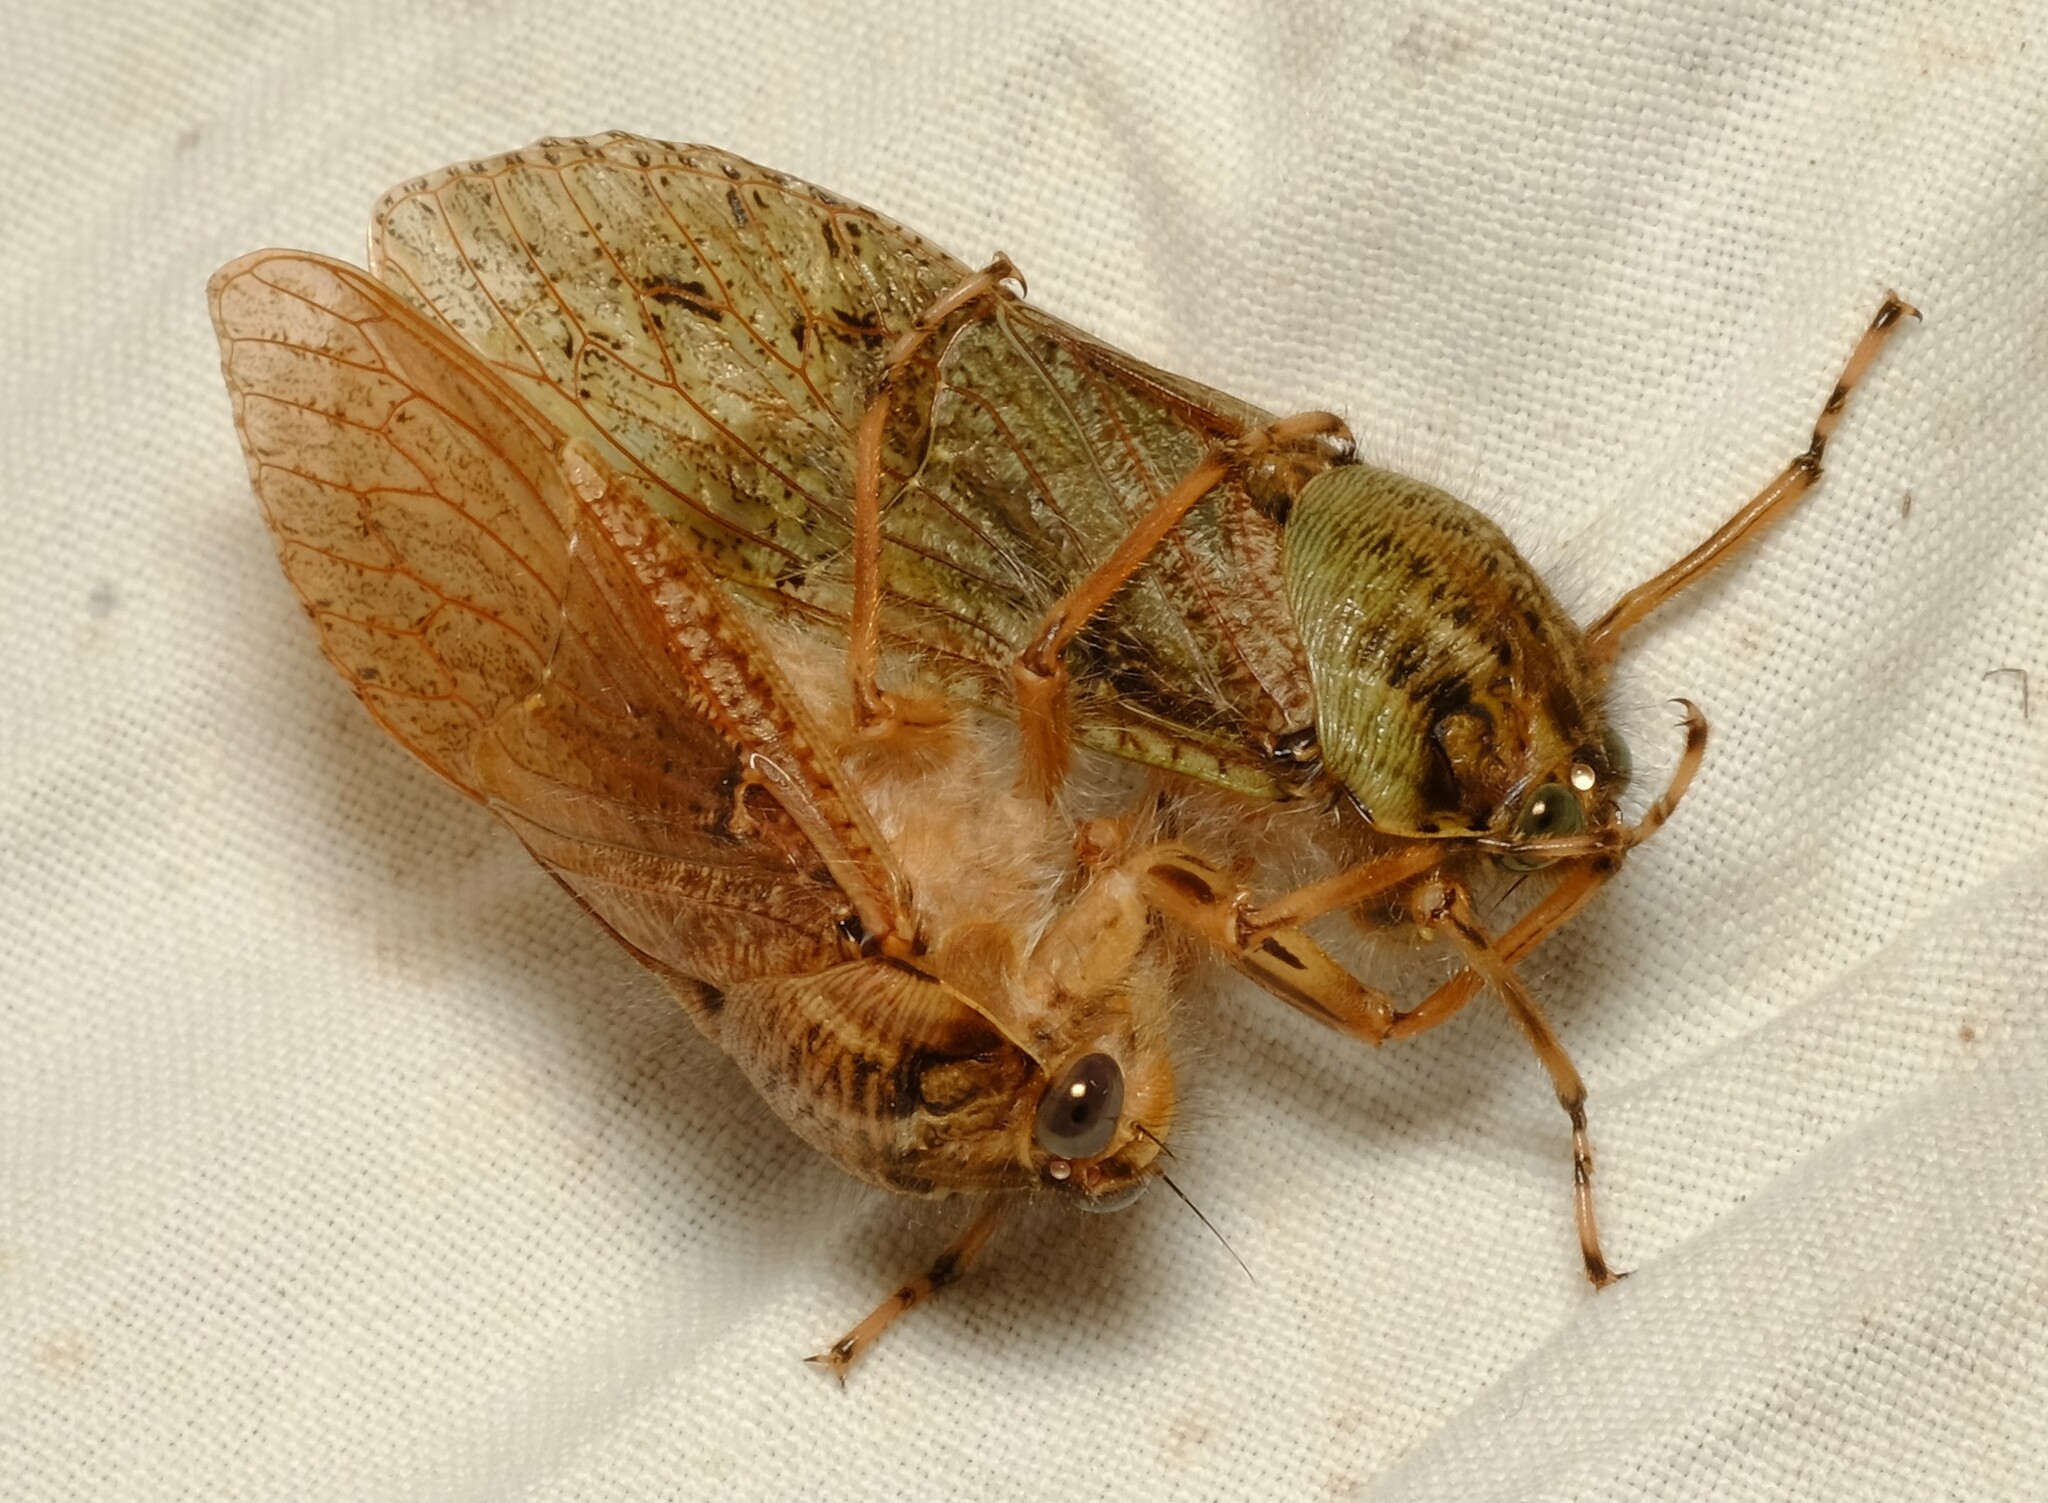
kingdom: Animalia
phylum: Arthropoda
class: Insecta
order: Hemiptera
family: Tettigarctidae
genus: Tettigarcta
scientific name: Tettigarcta crinita
